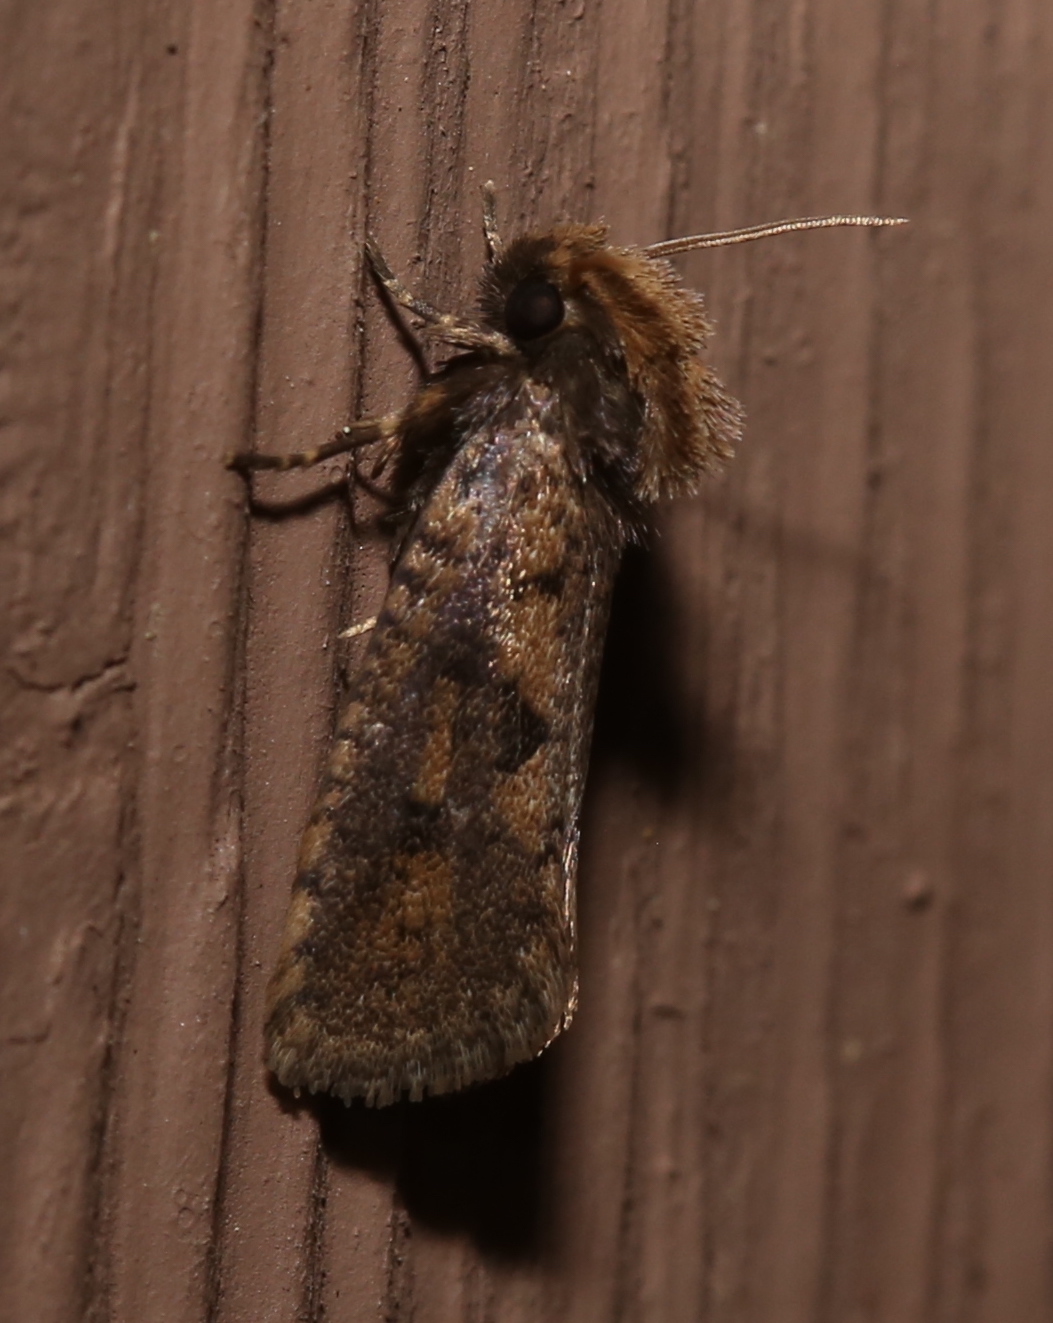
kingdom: Animalia
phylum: Arthropoda
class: Insecta
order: Lepidoptera
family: Tineidae
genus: Acrolophus
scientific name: Acrolophus popeanella
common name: Clemens' grass tubeworm moth
